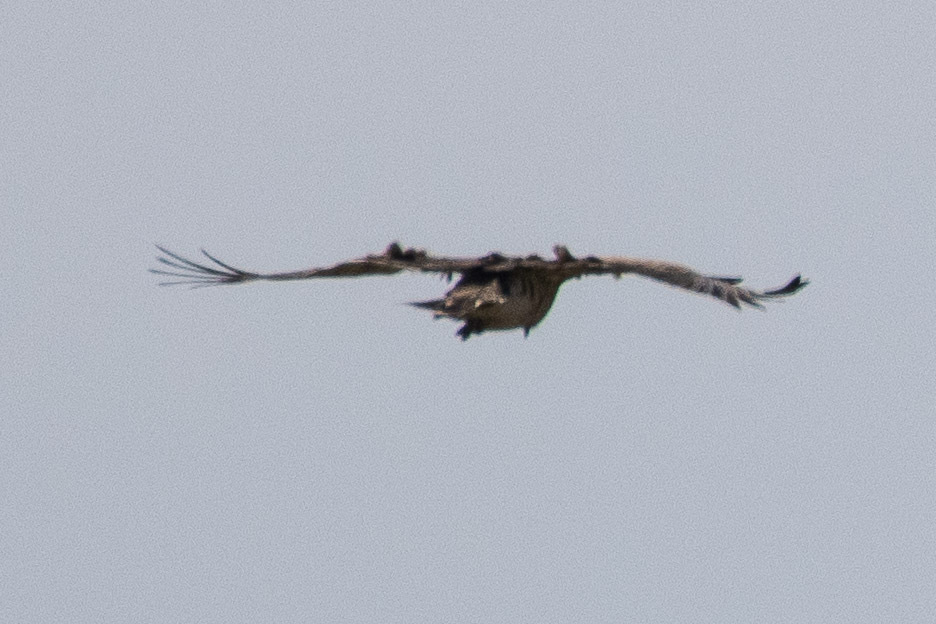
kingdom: Animalia
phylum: Chordata
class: Aves
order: Accipitriformes
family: Accipitridae
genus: Circaetus
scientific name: Circaetus gallicus
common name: Short-toed snake eagle
